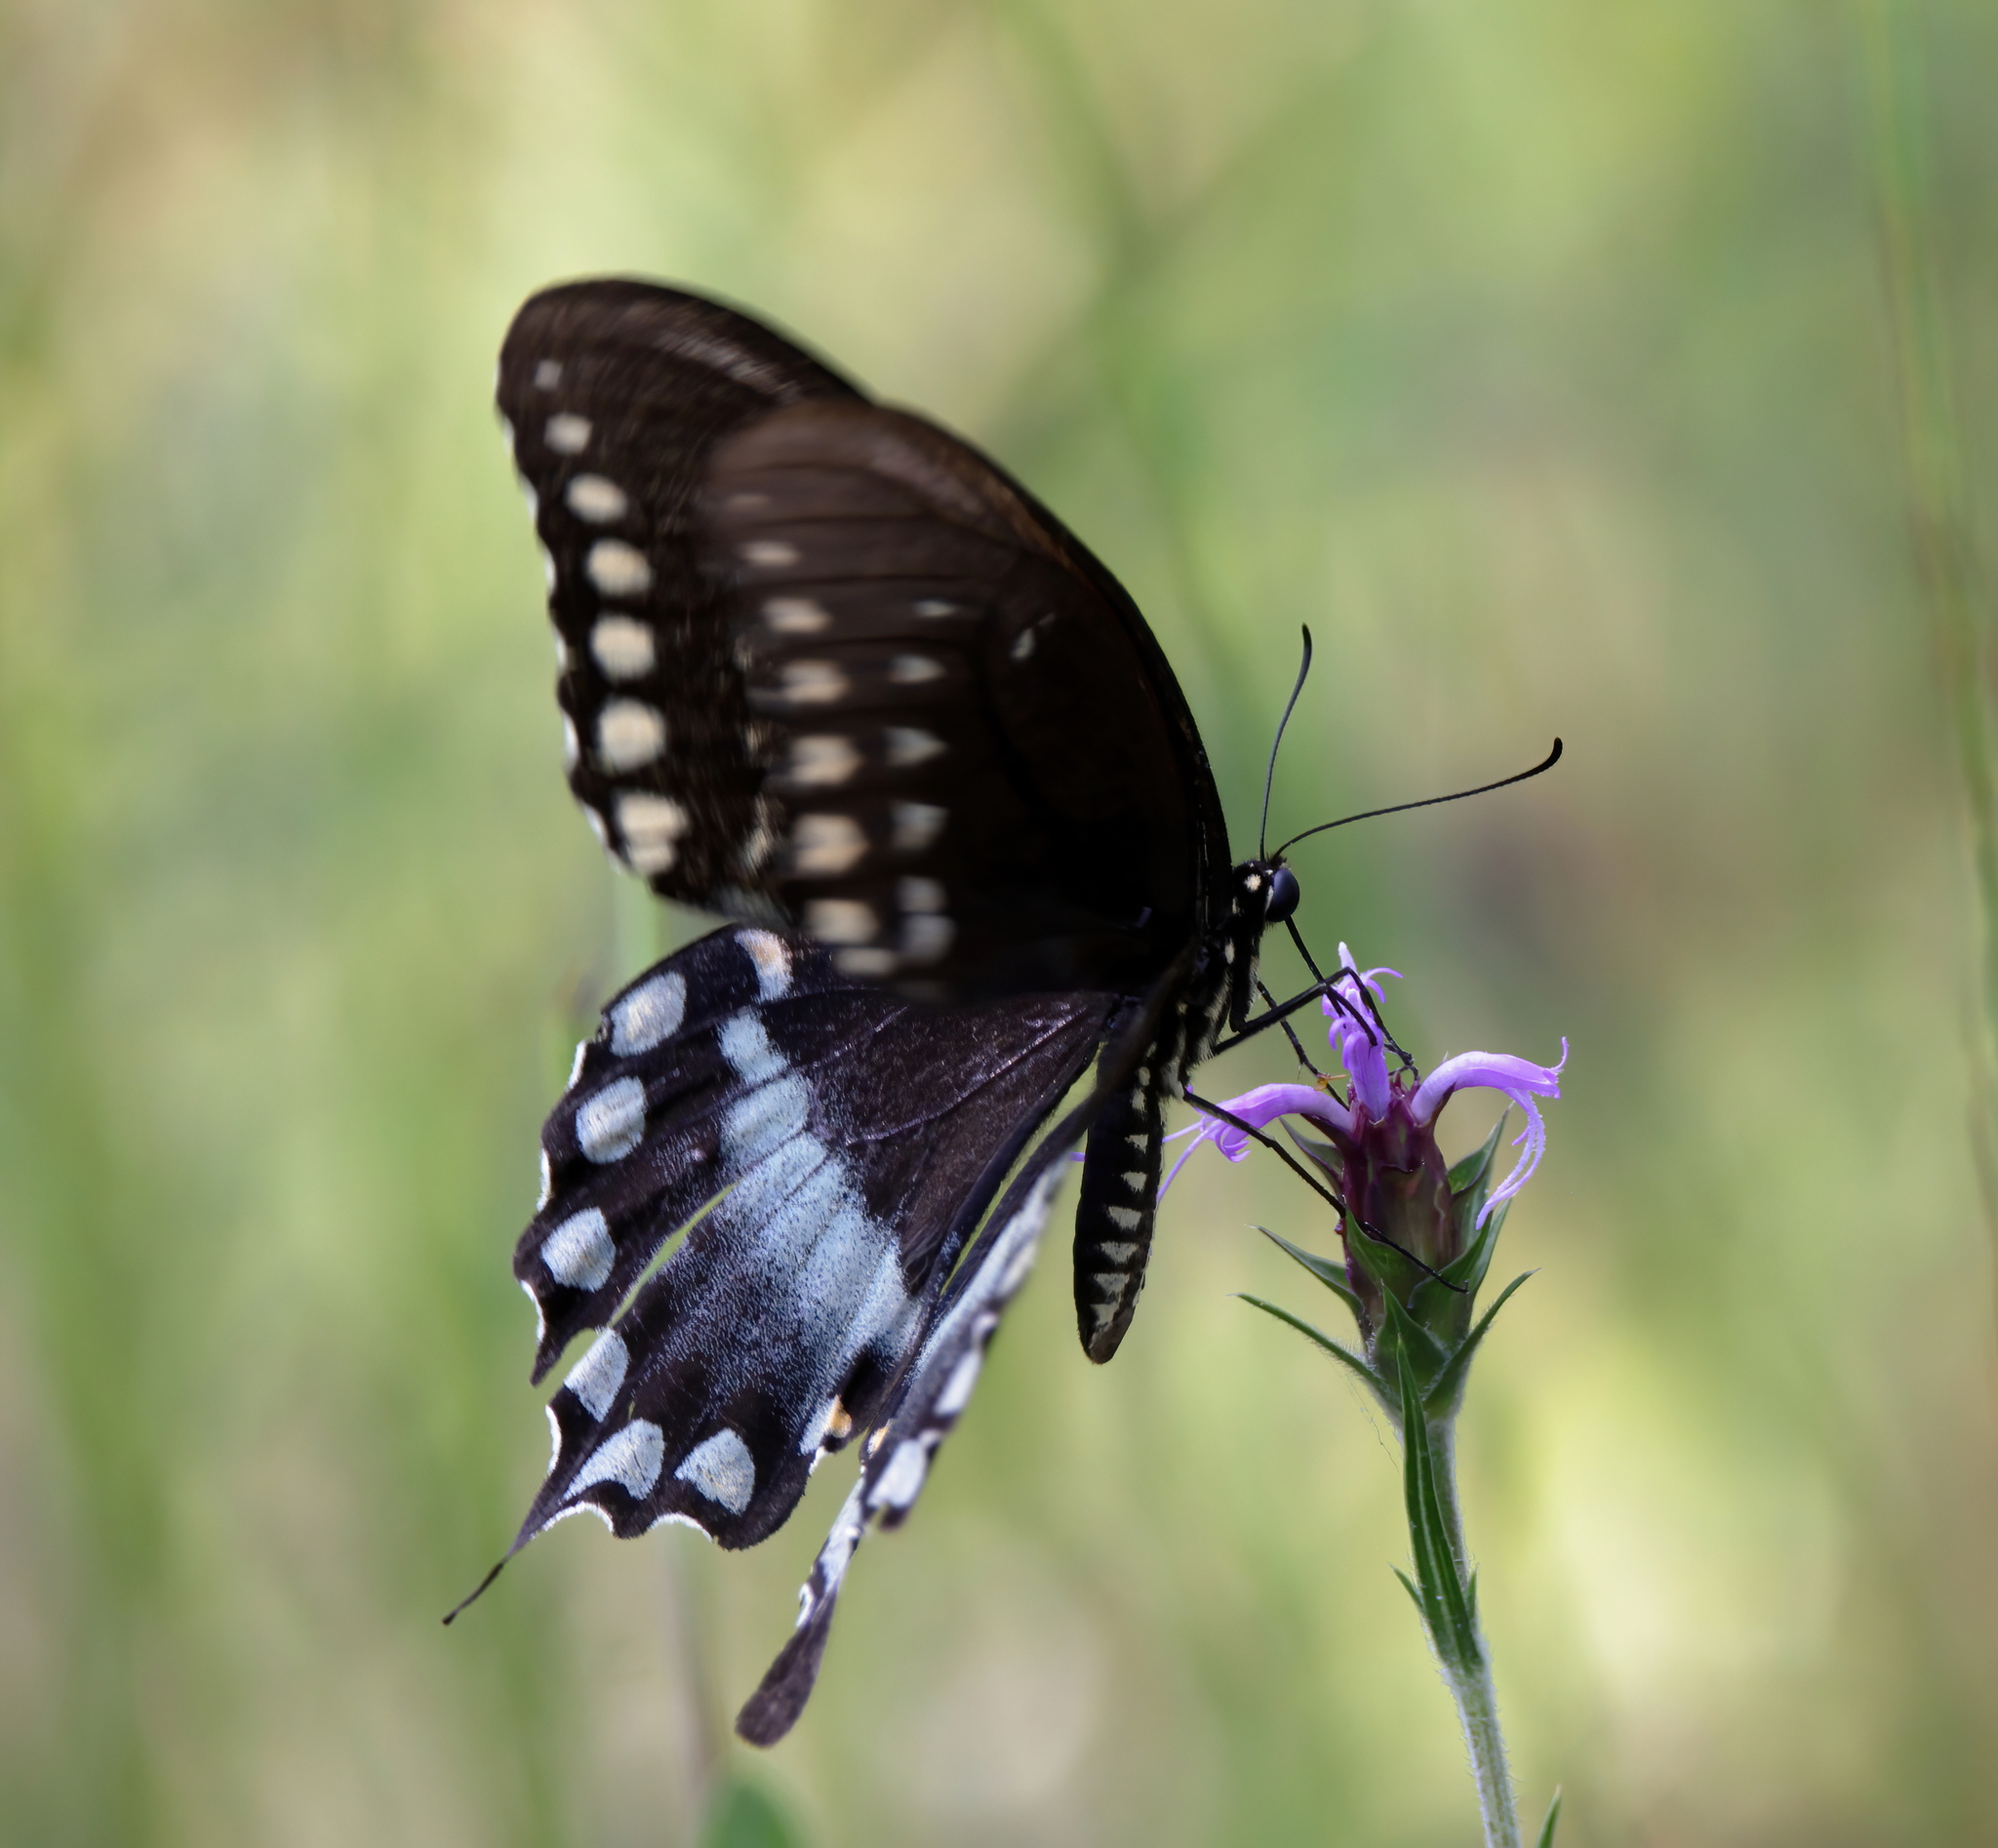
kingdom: Animalia
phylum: Arthropoda
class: Insecta
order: Lepidoptera
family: Papilionidae
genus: Papilio
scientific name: Papilio troilus
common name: Spicebush swallowtail
